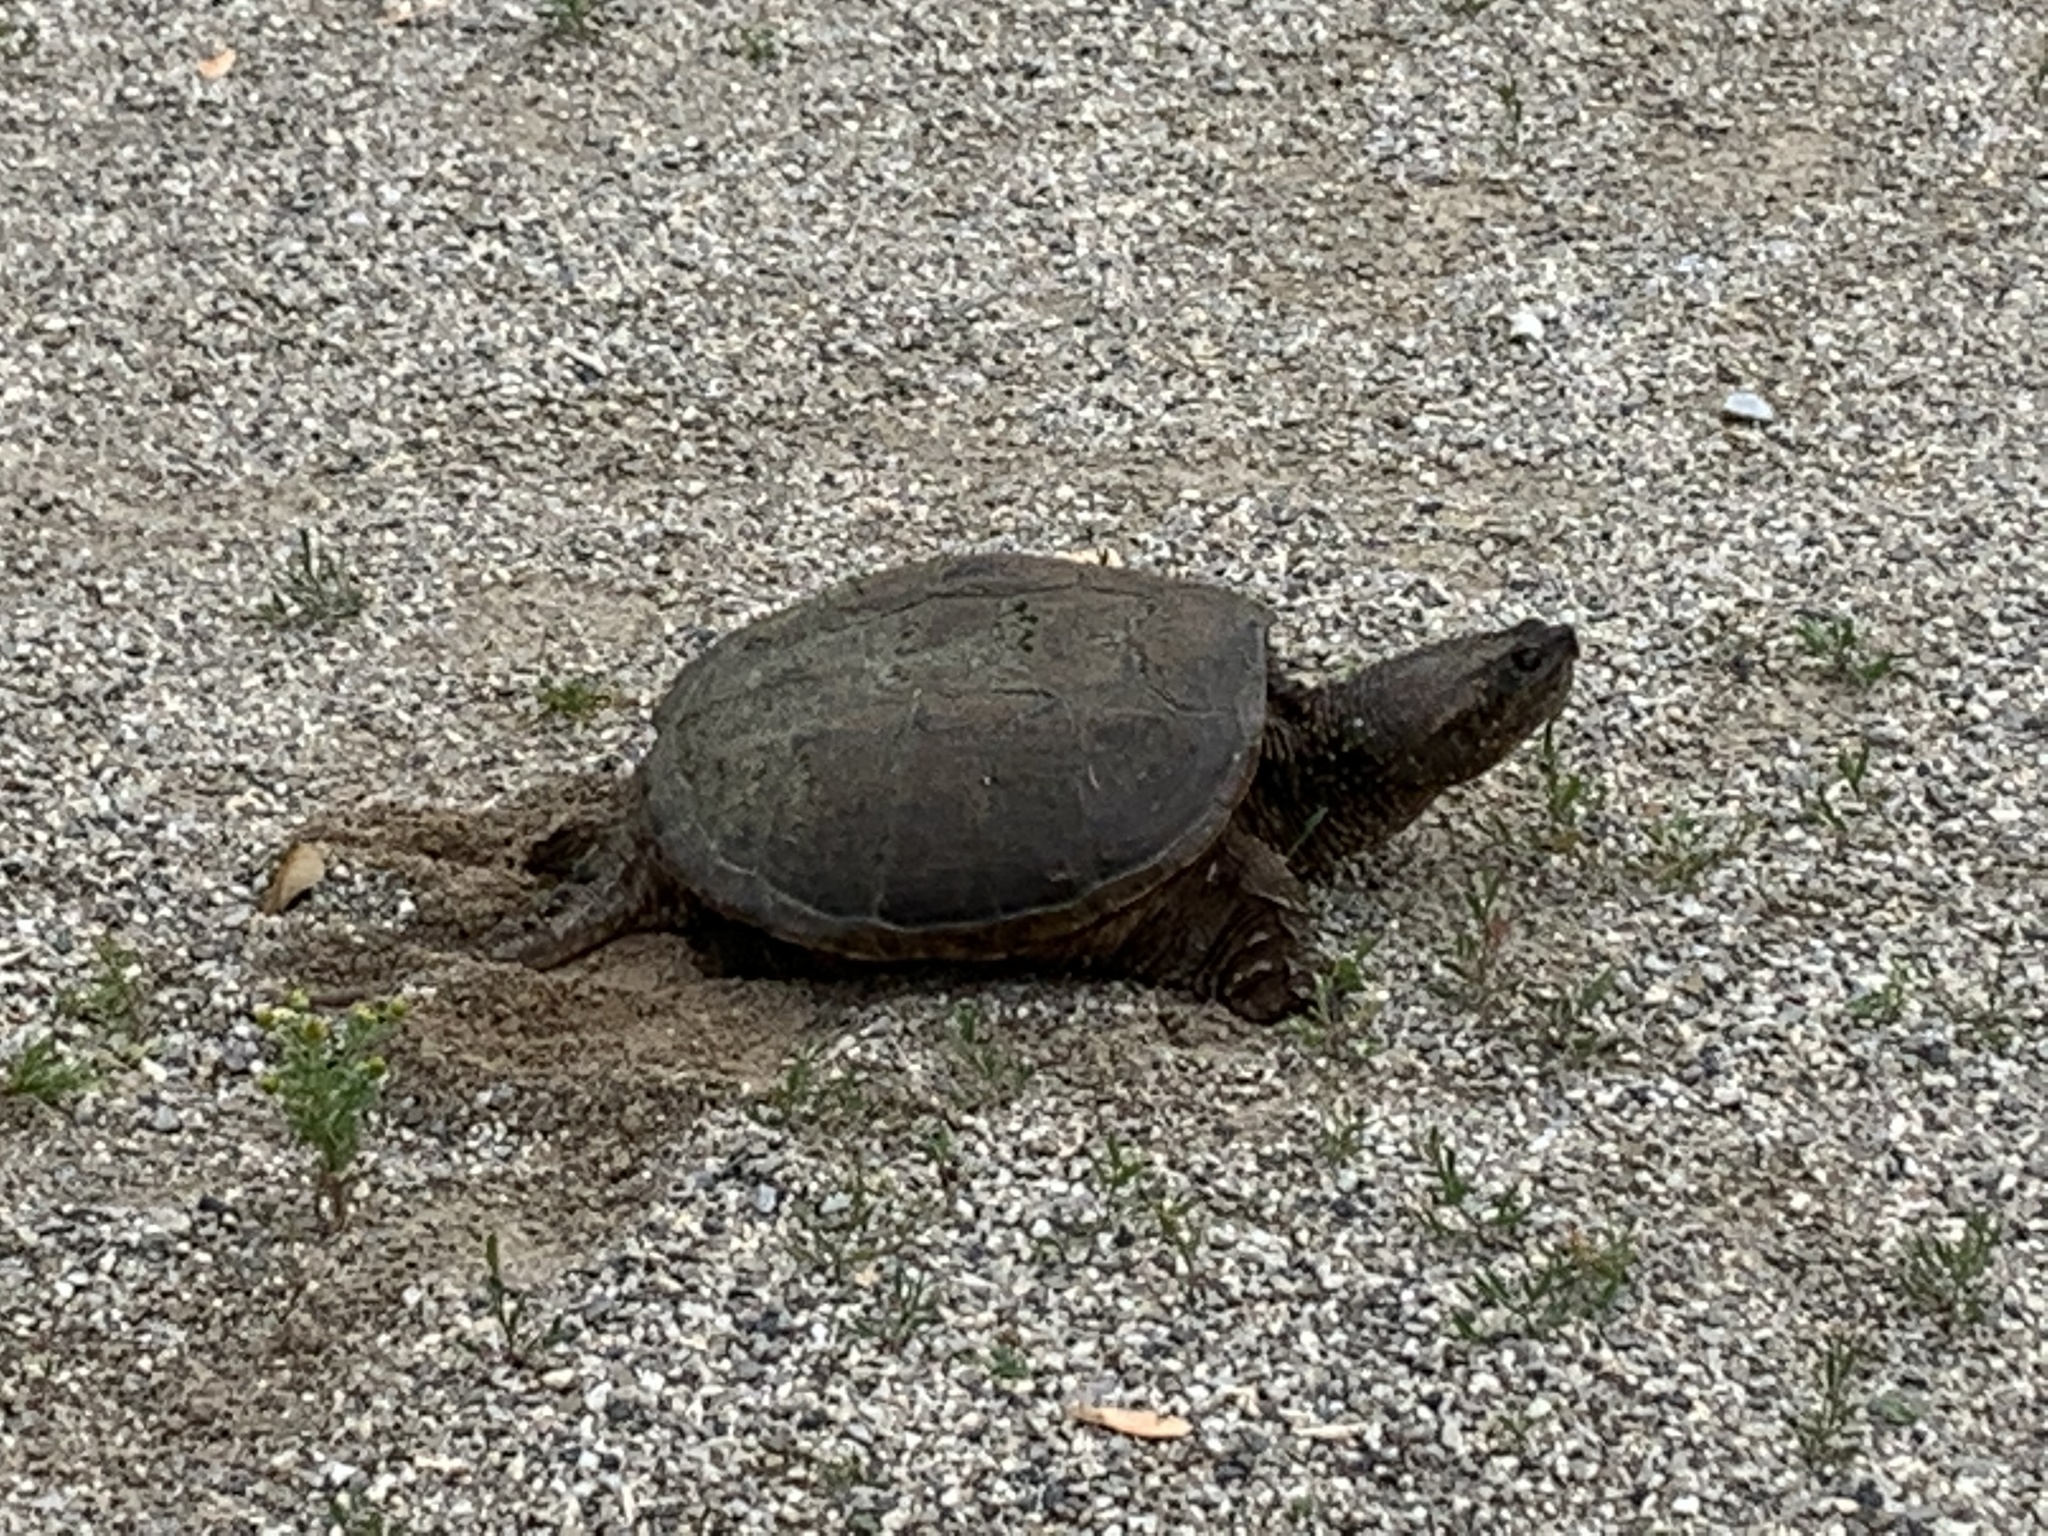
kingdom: Animalia
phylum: Chordata
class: Testudines
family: Chelydridae
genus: Chelydra
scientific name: Chelydra serpentina
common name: Common snapping turtle
